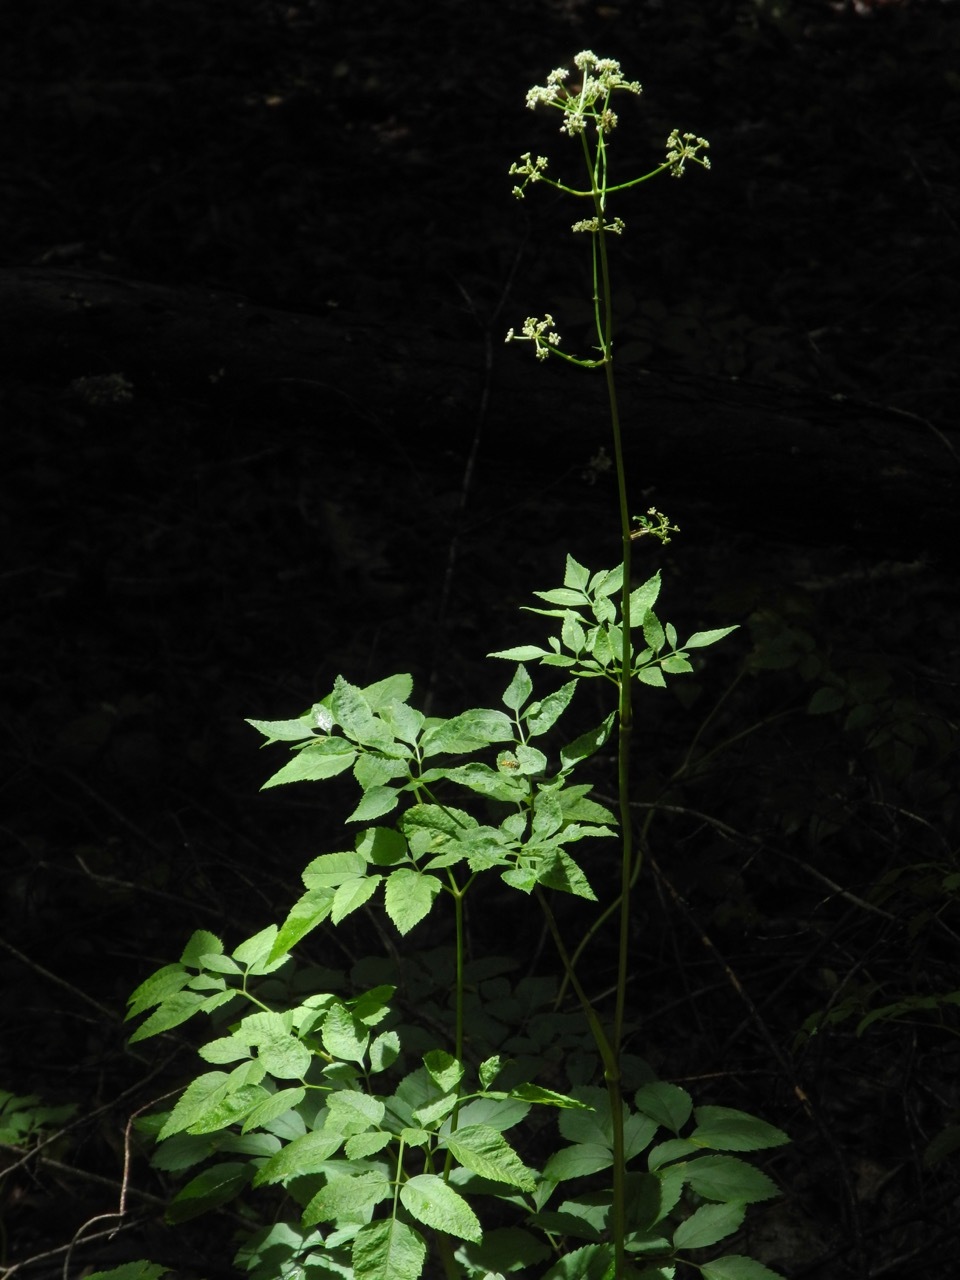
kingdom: Plantae
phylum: Tracheophyta
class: Magnoliopsida
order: Apiales
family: Apiaceae
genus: Cicuta
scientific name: Cicuta maculata
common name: Spotted cowbane
